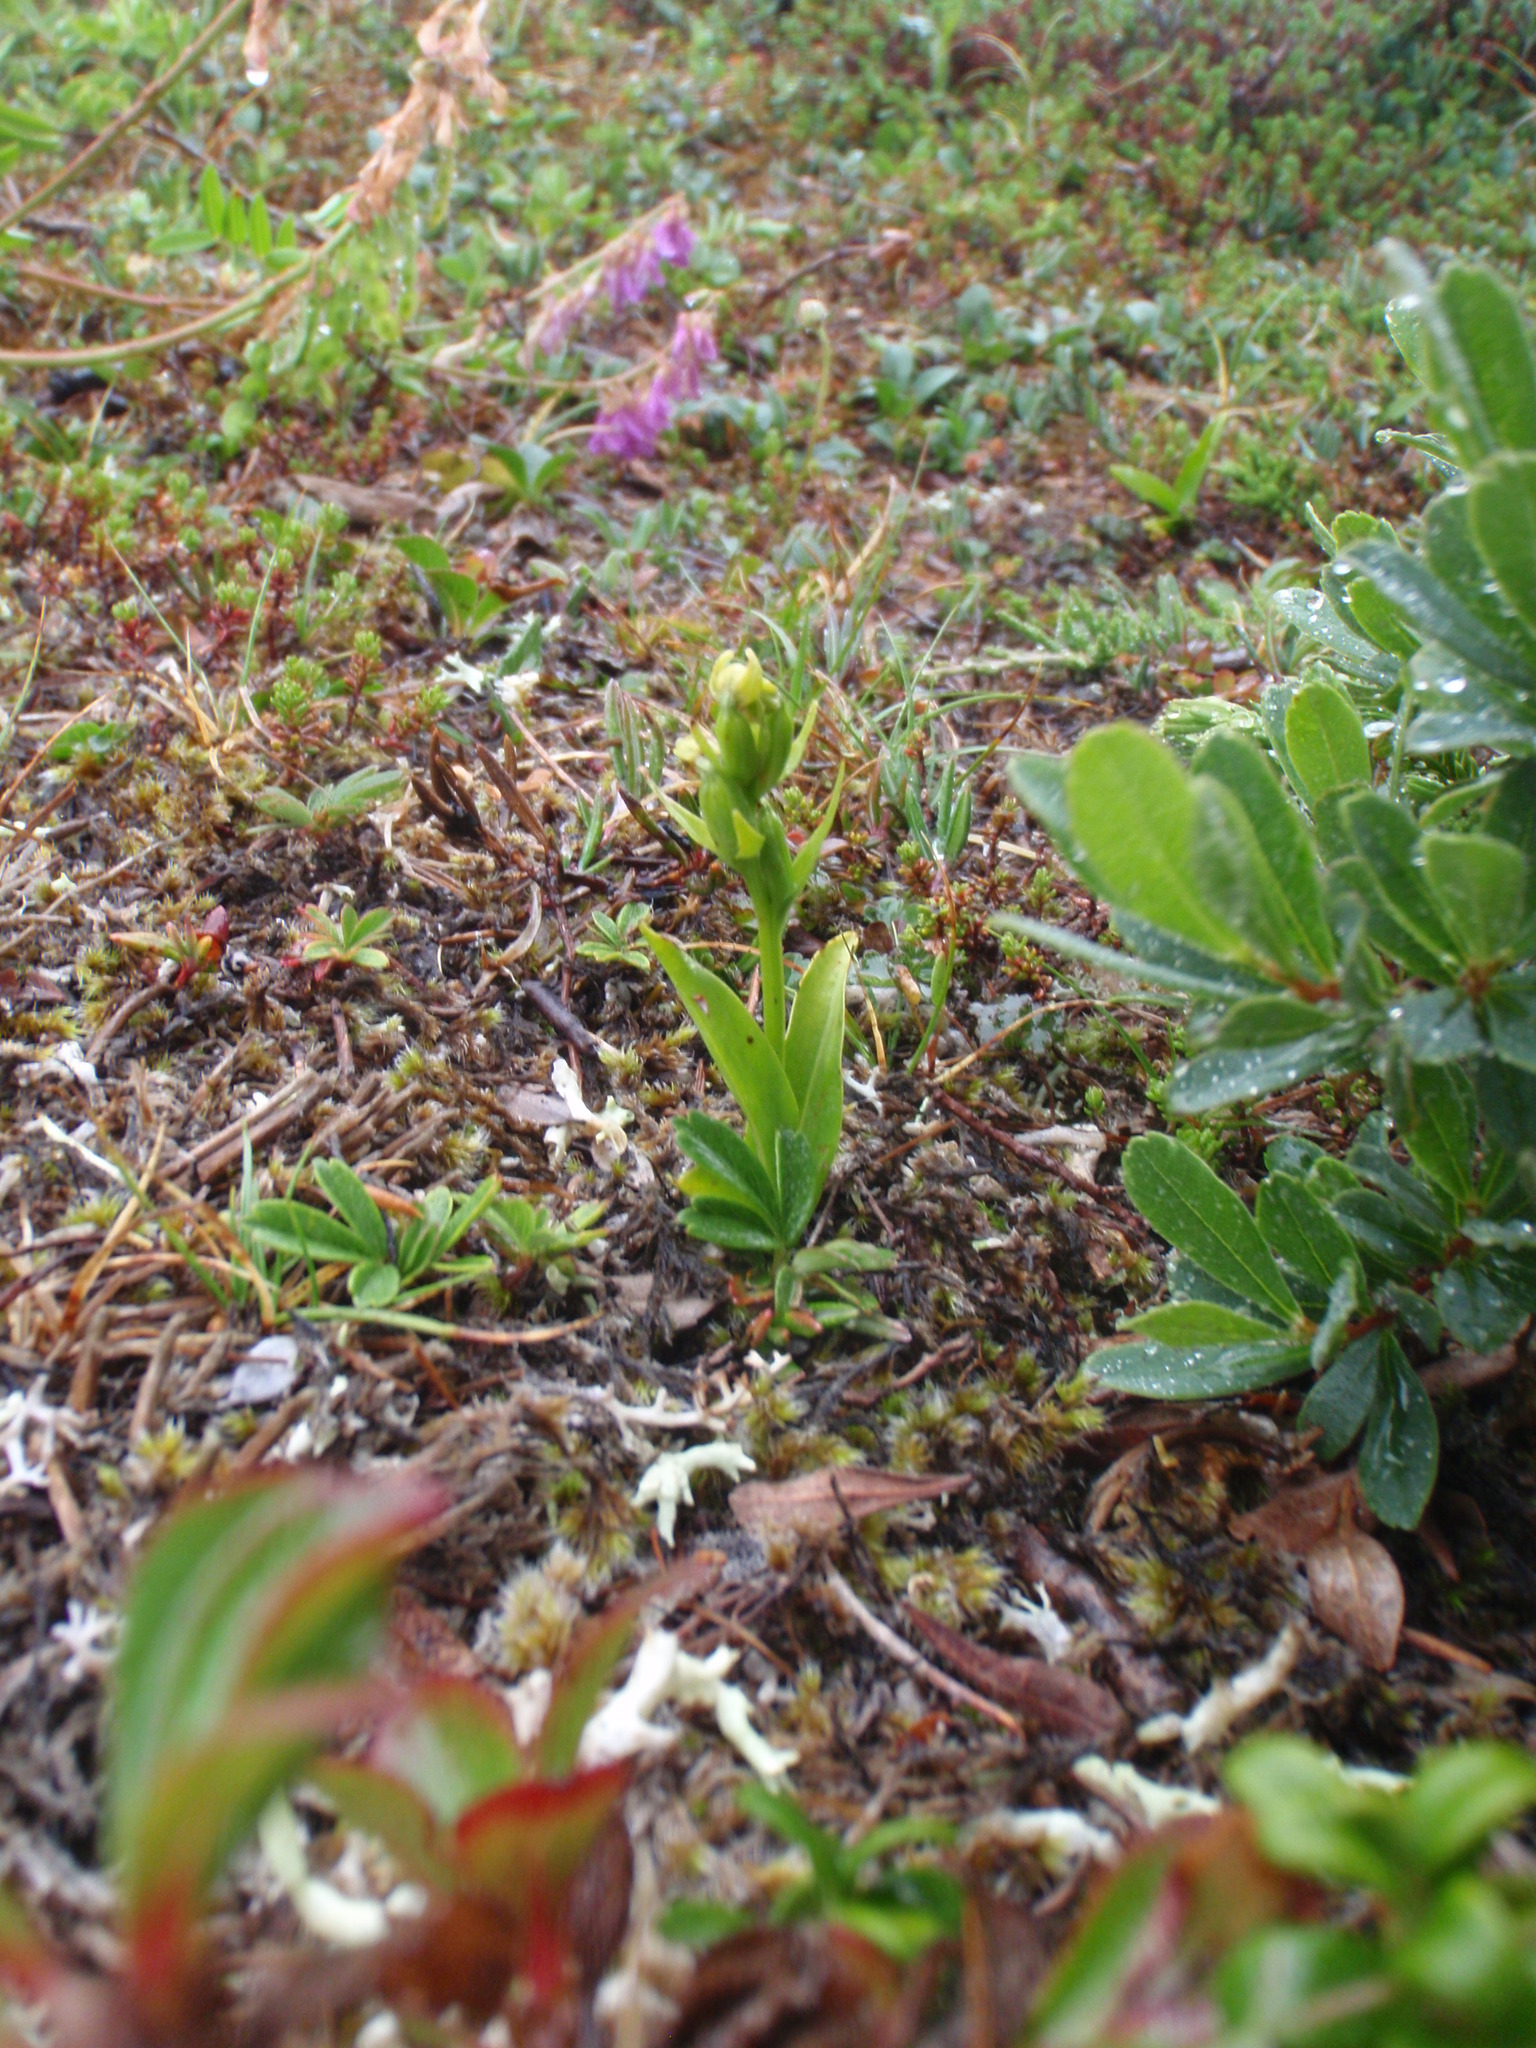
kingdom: Plantae
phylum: Tracheophyta
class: Liliopsida
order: Asparagales
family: Orchidaceae
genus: Dactylorhiza
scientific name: Dactylorhiza viridis
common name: Longbract frog orchid
